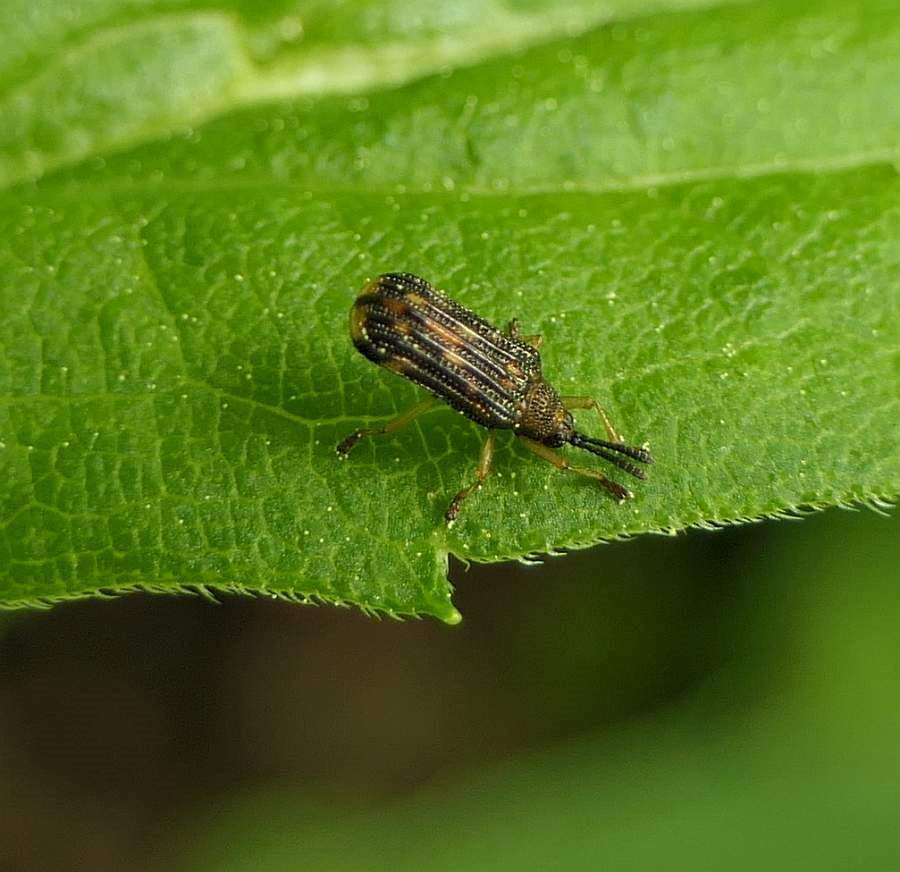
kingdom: Animalia
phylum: Arthropoda
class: Insecta
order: Coleoptera
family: Chrysomelidae
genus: Sumitrosis
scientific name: Sumitrosis inaequalis
